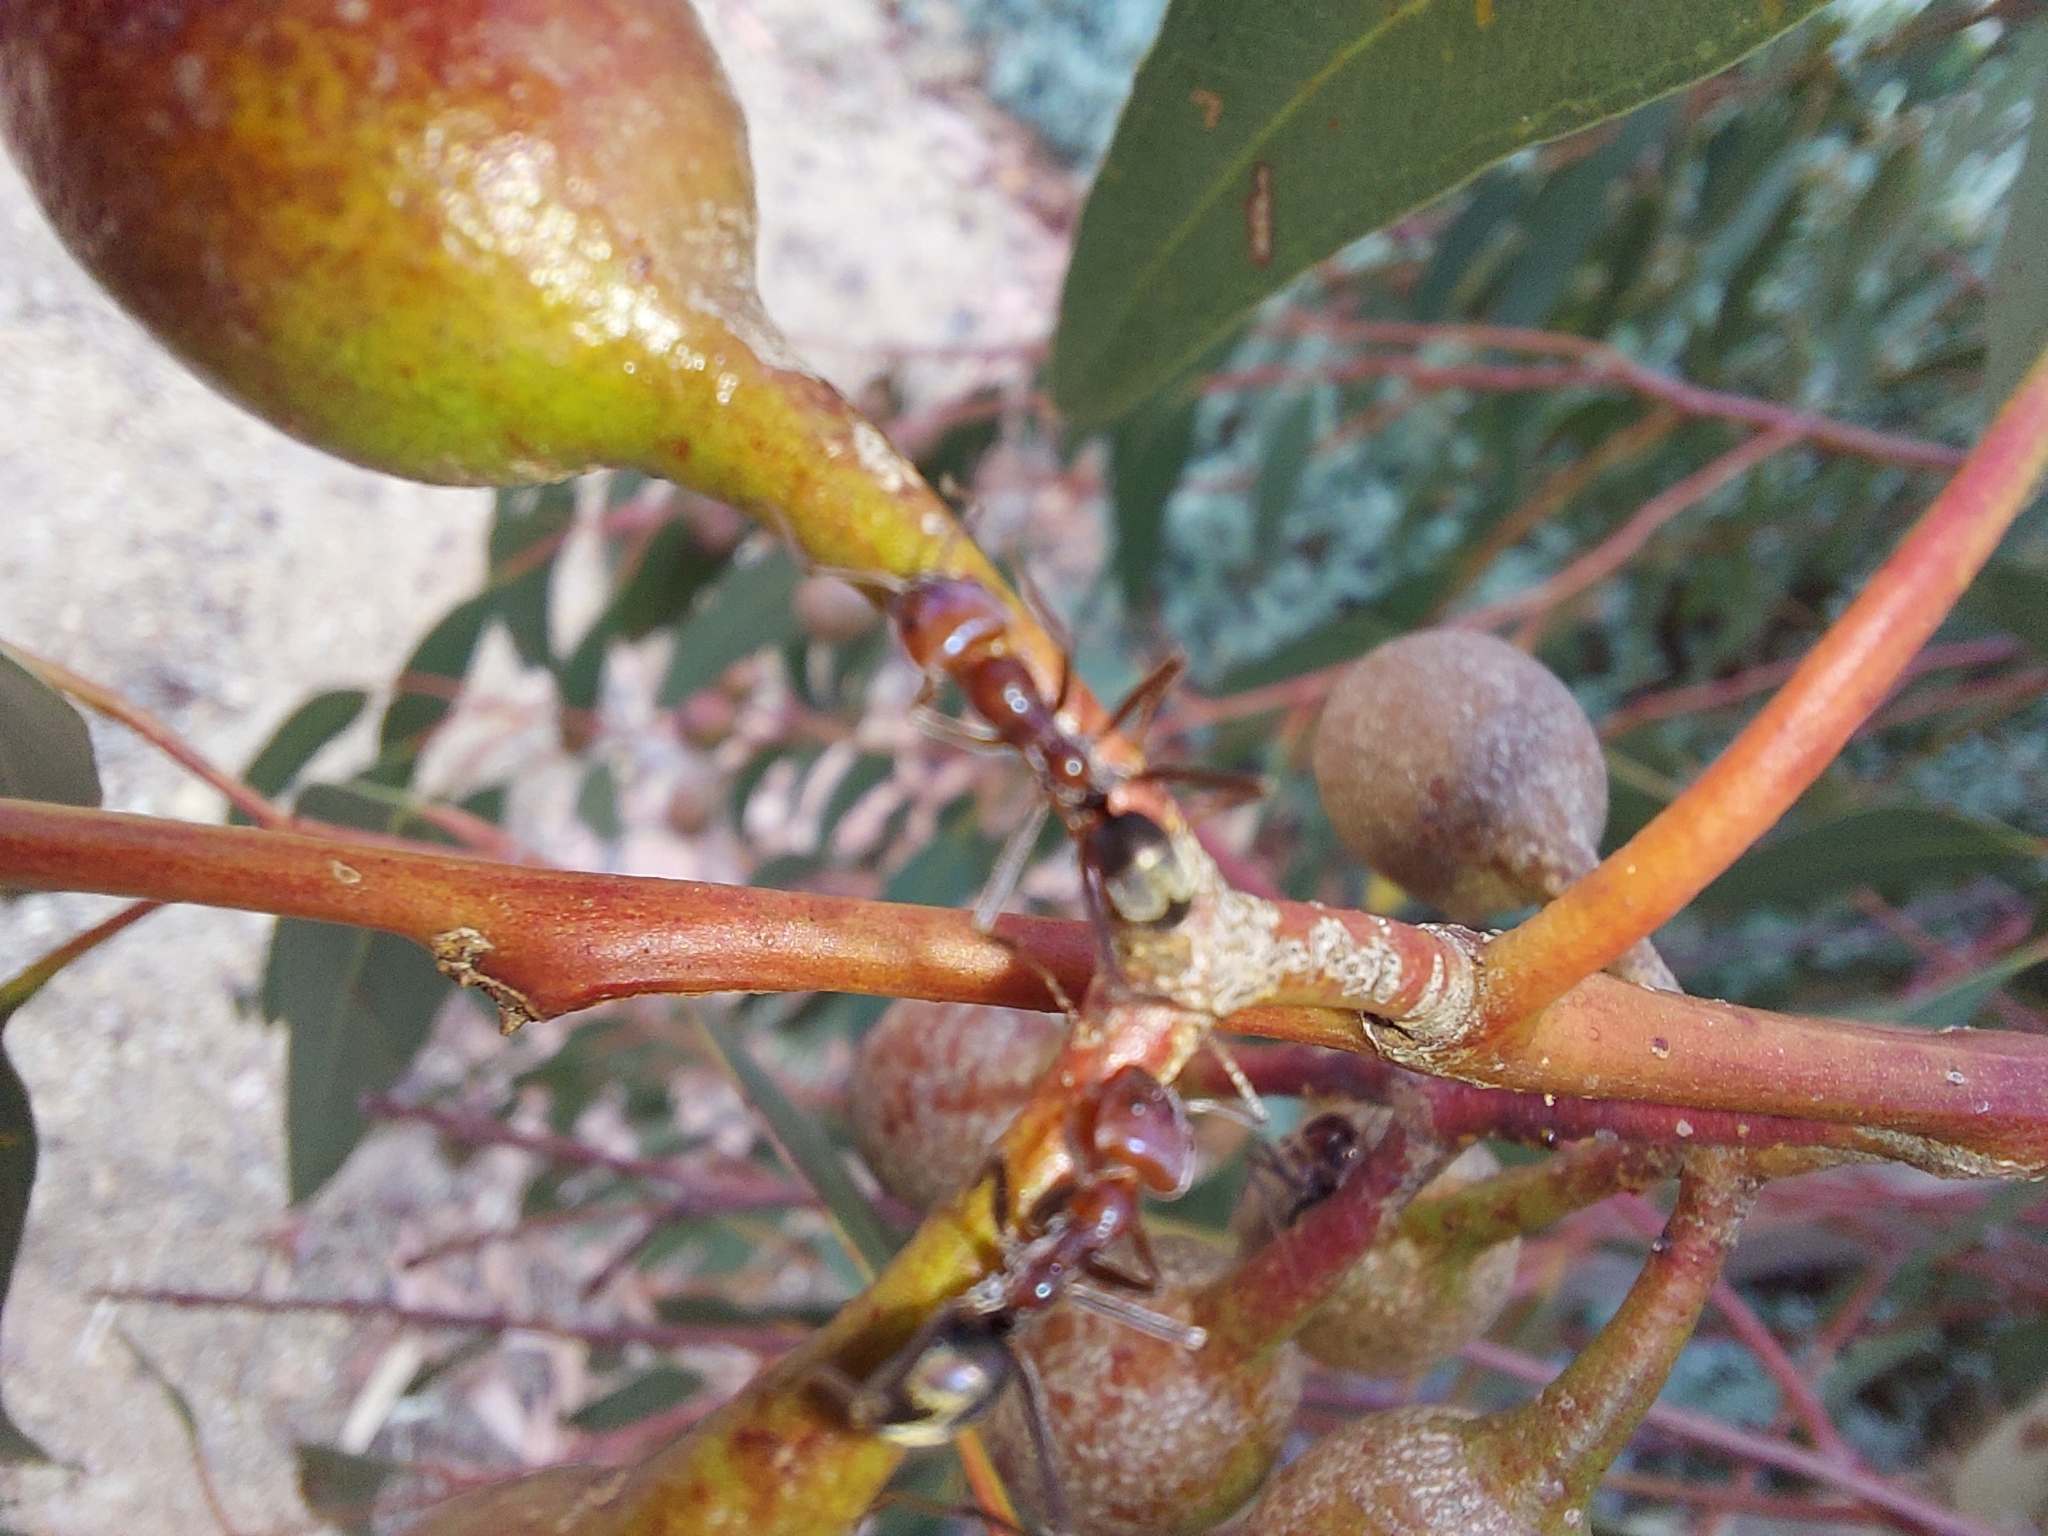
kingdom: Animalia
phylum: Arthropoda
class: Insecta
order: Hymenoptera
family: Formicidae
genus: Iridomyrmex
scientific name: Iridomyrmex purpureus
